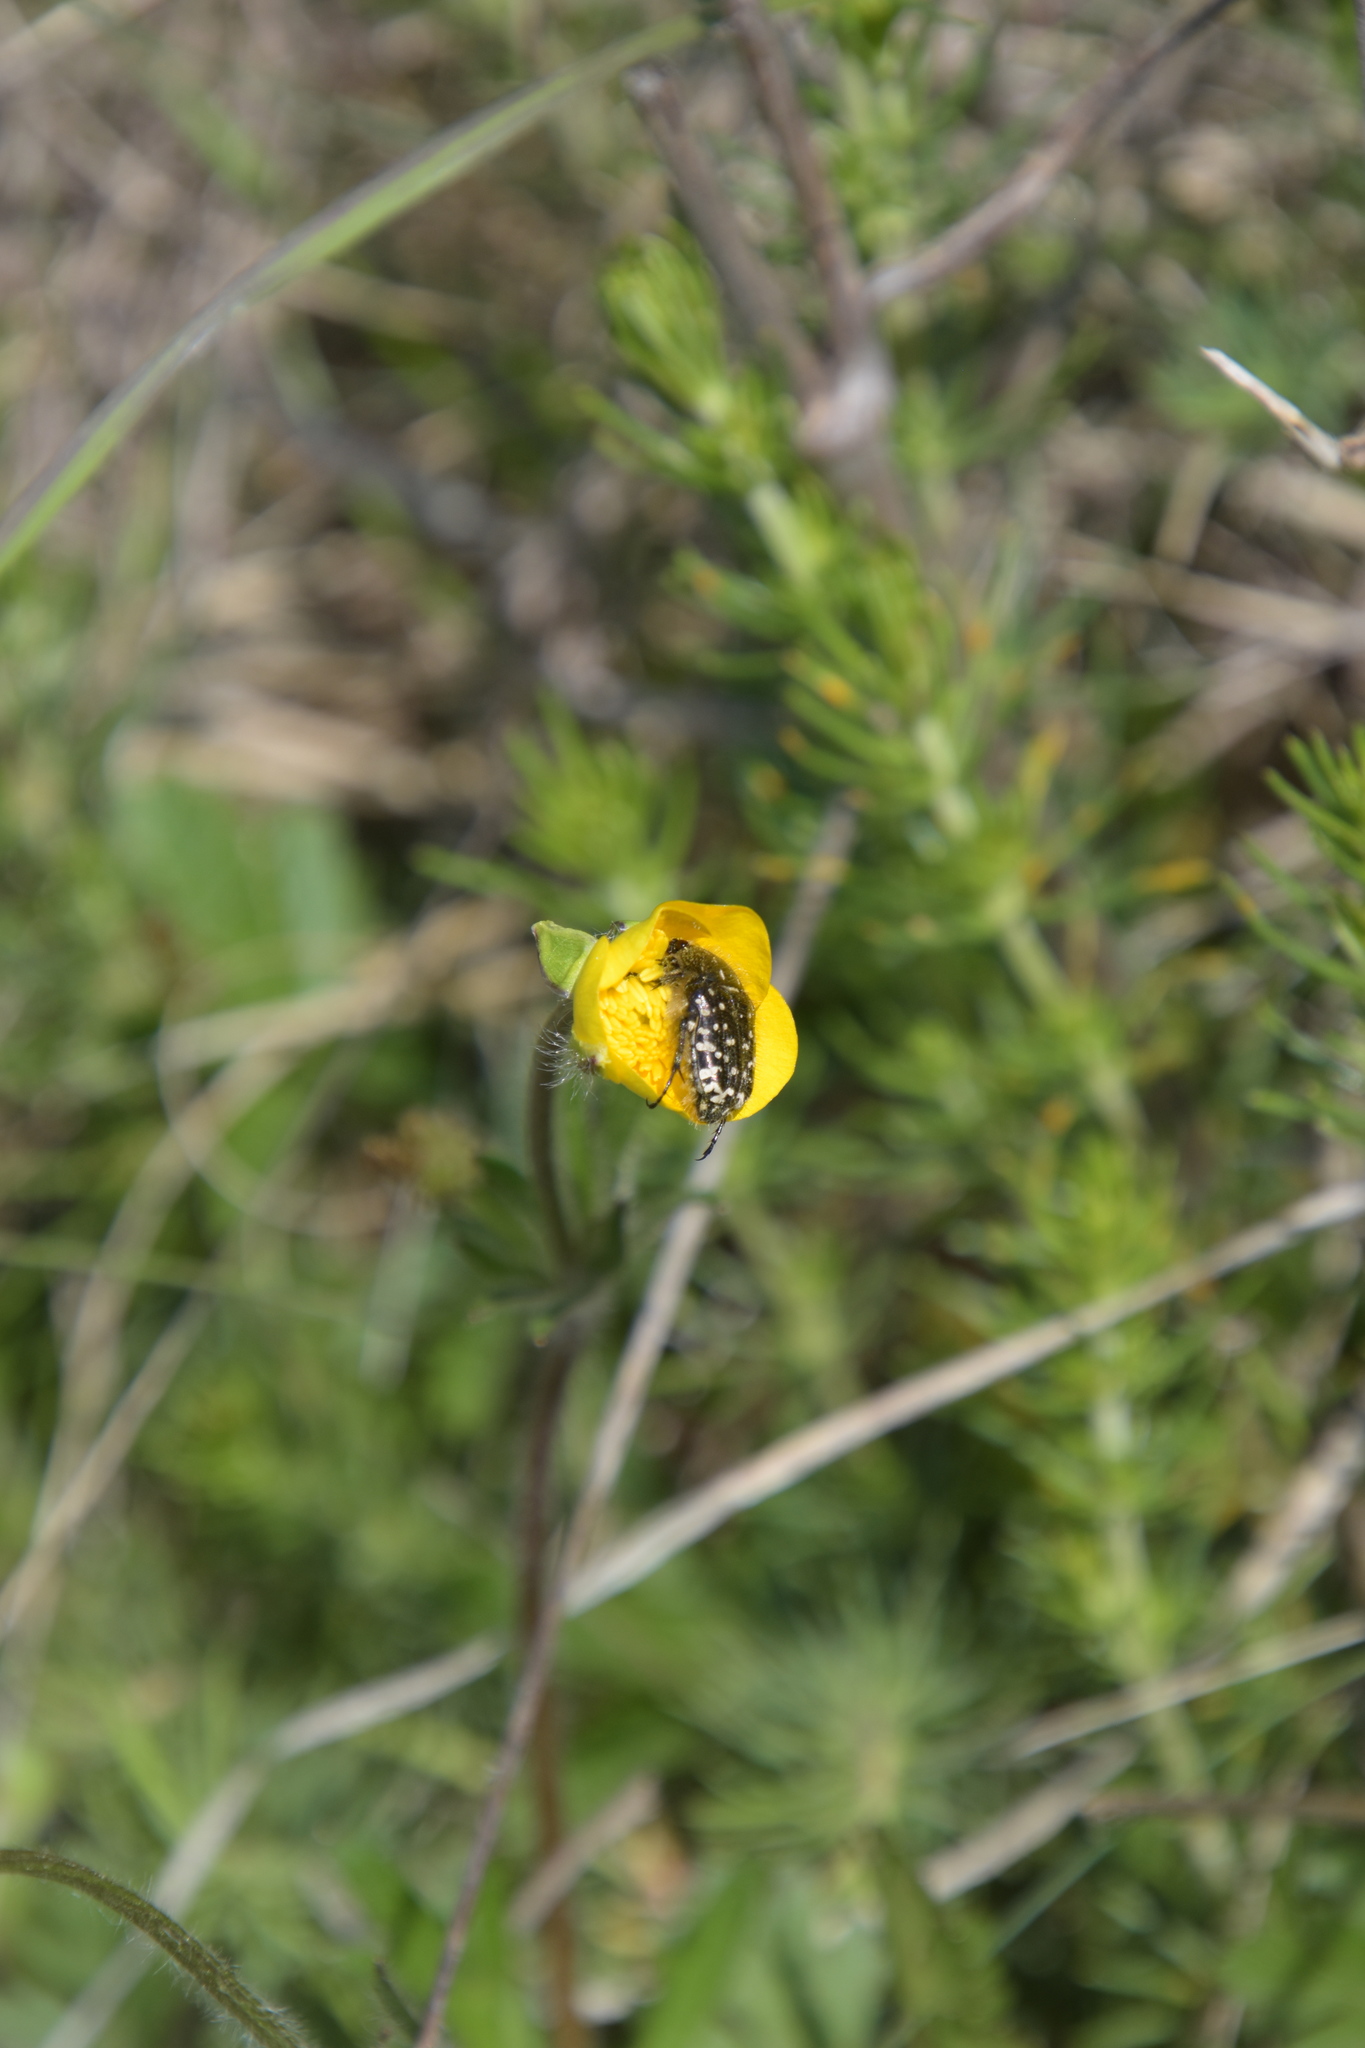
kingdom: Animalia
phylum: Arthropoda
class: Insecta
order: Coleoptera
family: Scarabaeidae
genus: Oxythyrea
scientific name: Oxythyrea funesta
